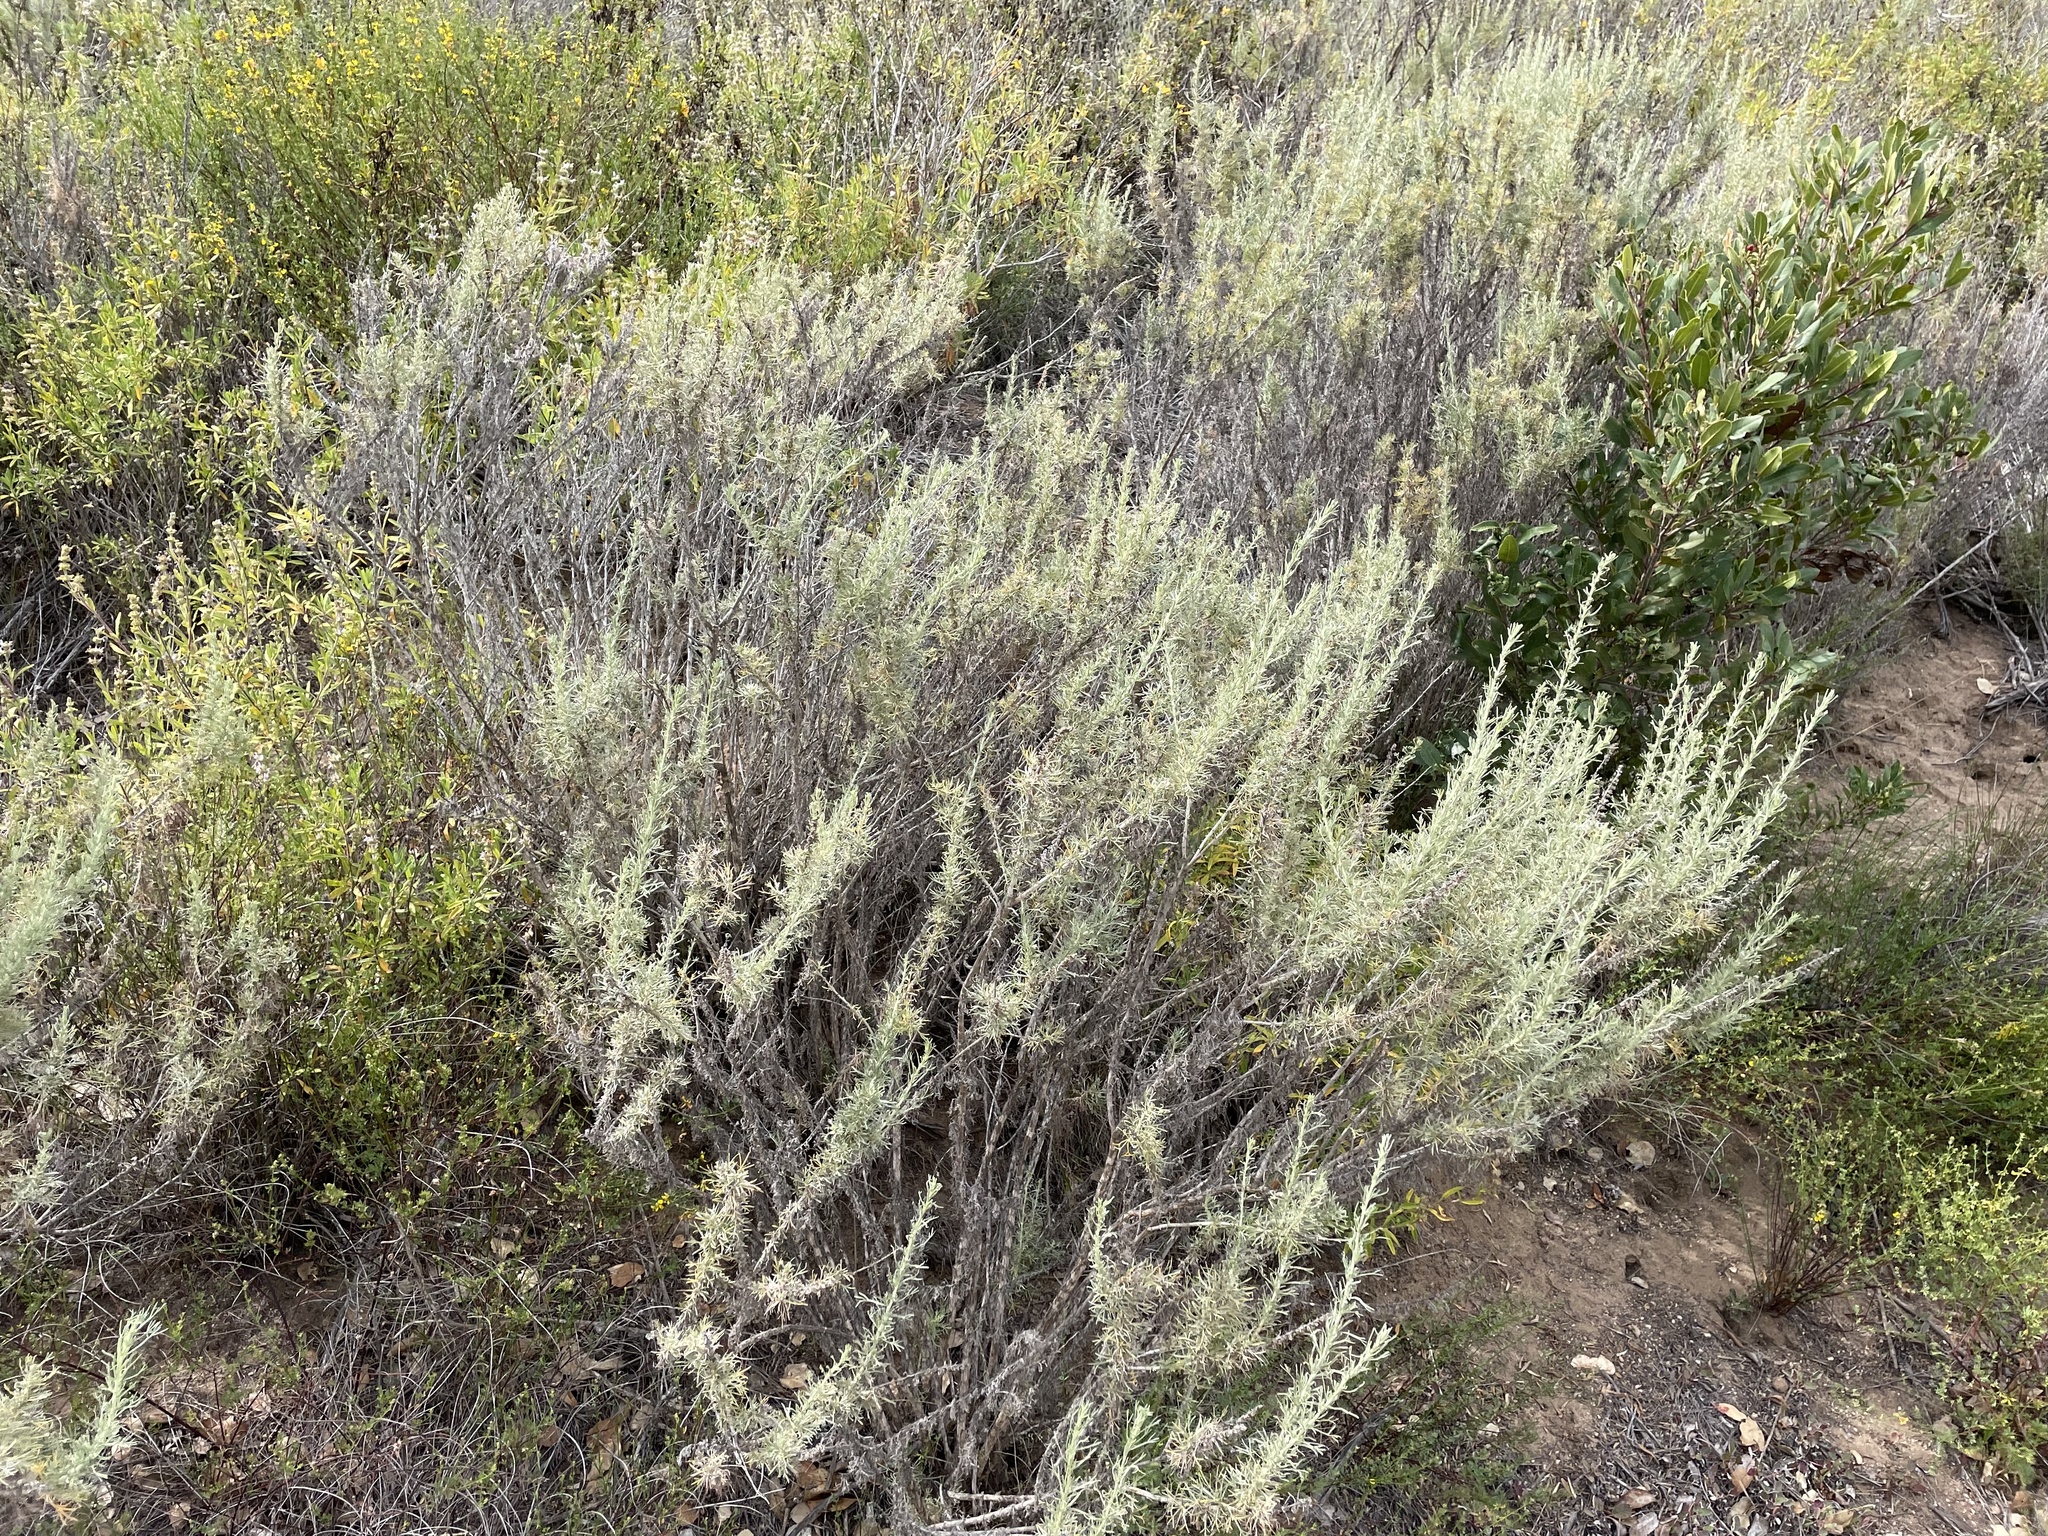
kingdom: Plantae
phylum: Tracheophyta
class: Magnoliopsida
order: Asterales
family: Asteraceae
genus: Artemisia
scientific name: Artemisia californica
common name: California sagebrush
